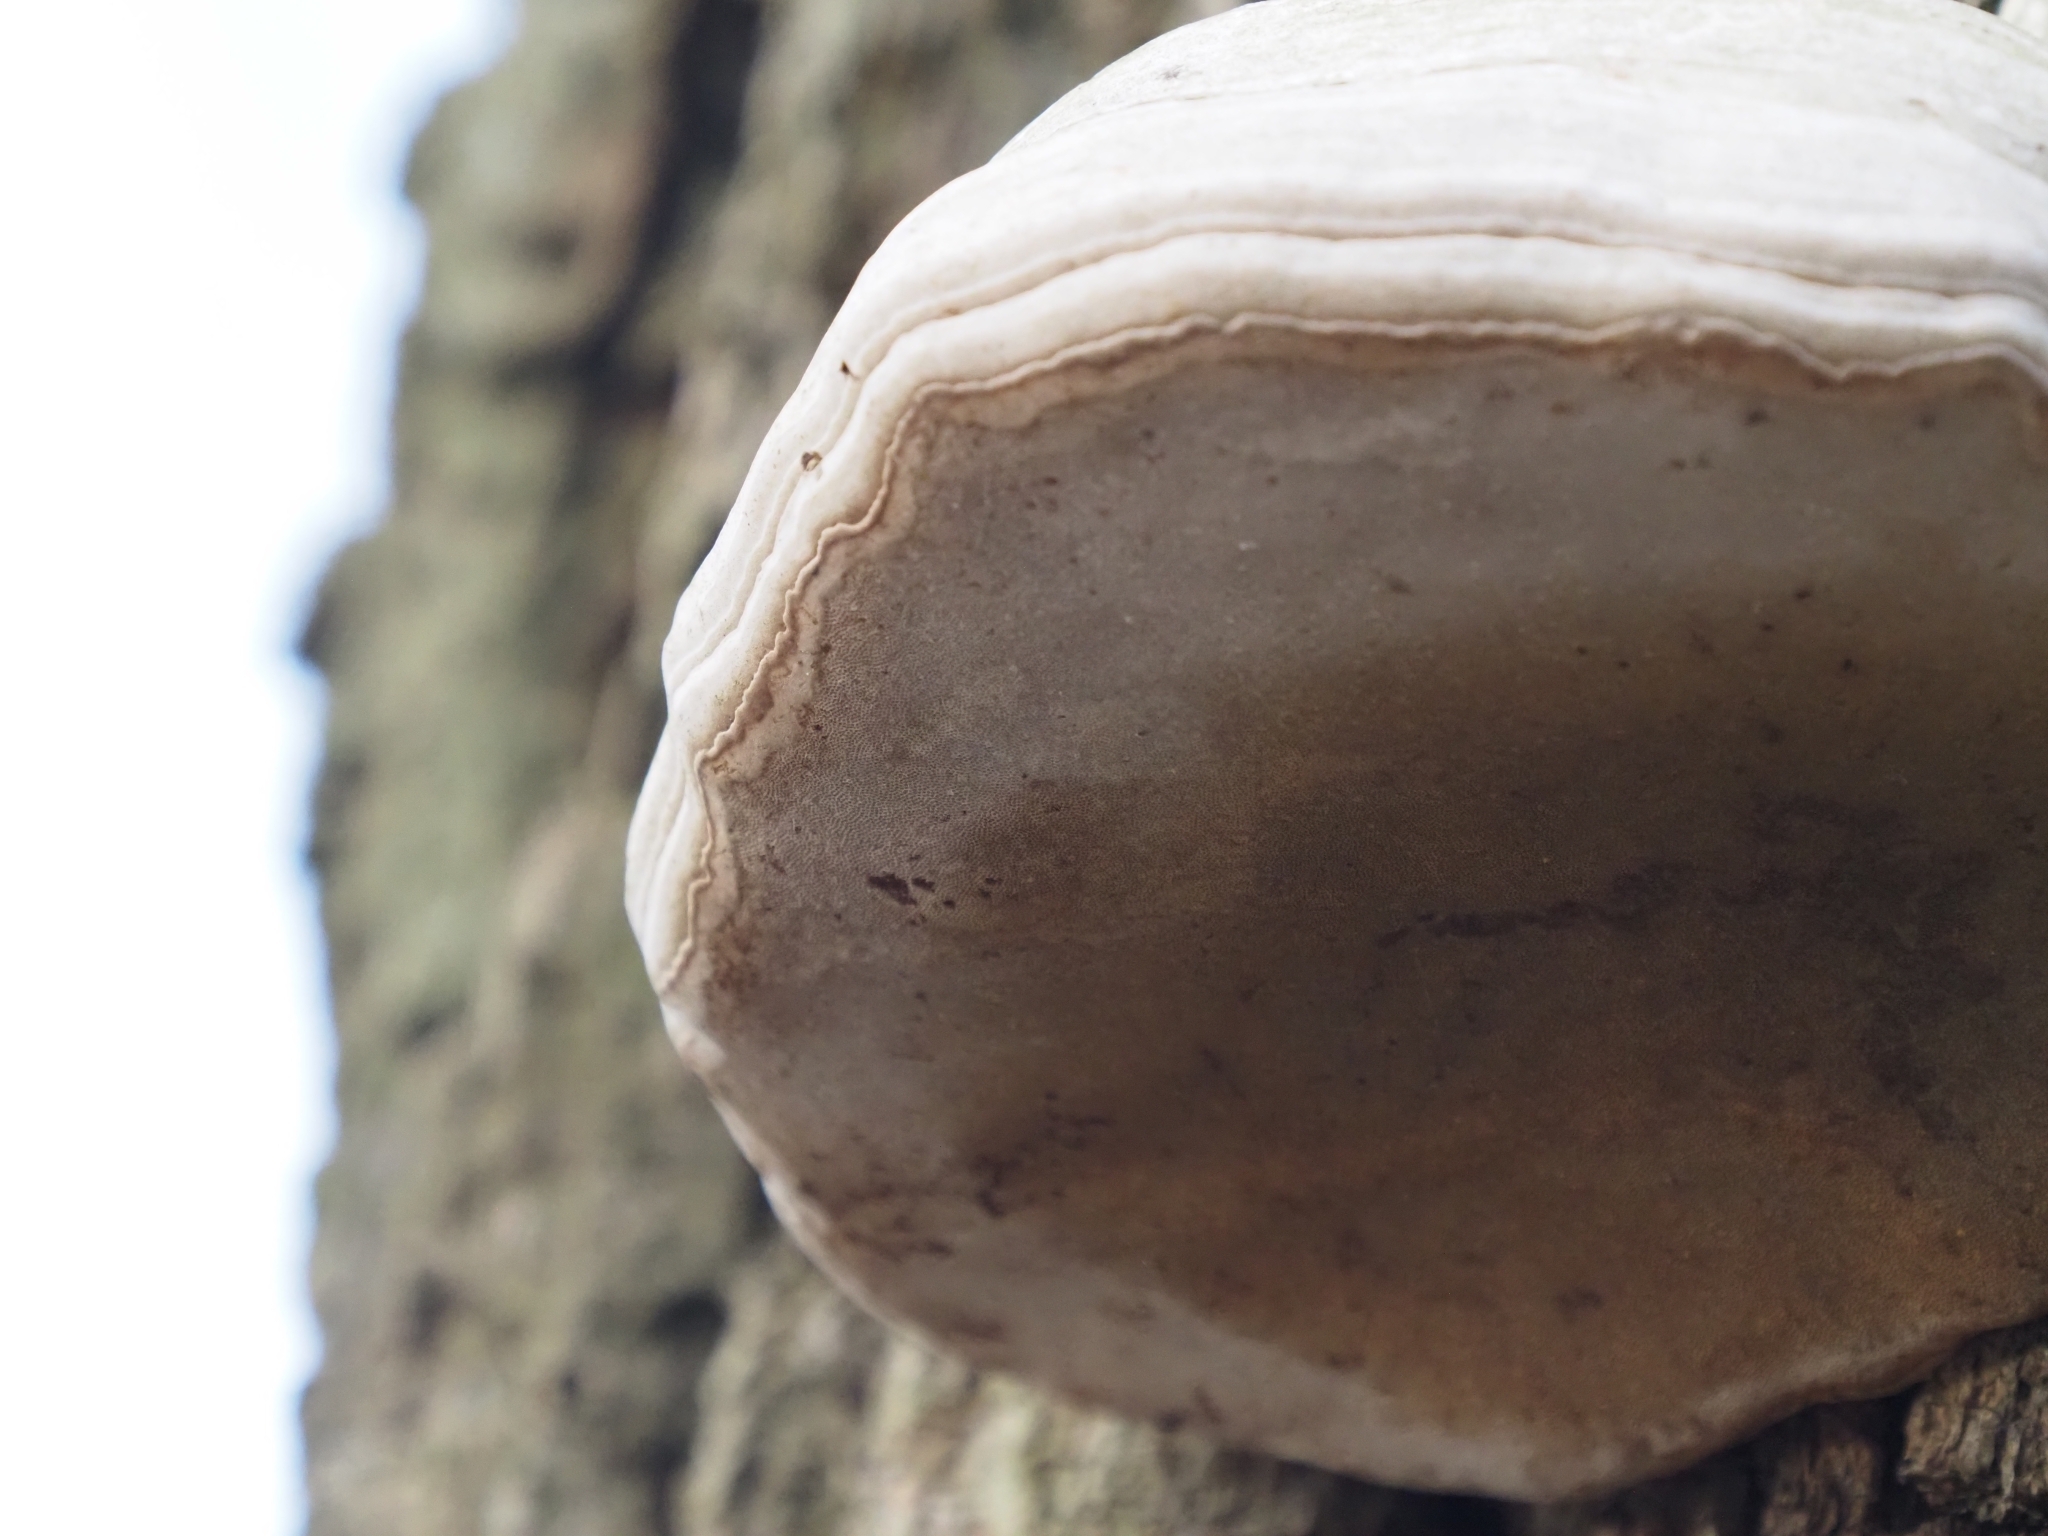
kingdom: Fungi
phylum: Basidiomycota
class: Agaricomycetes
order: Polyporales
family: Polyporaceae
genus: Fomes
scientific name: Fomes fomentarius
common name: Hoof fungus
